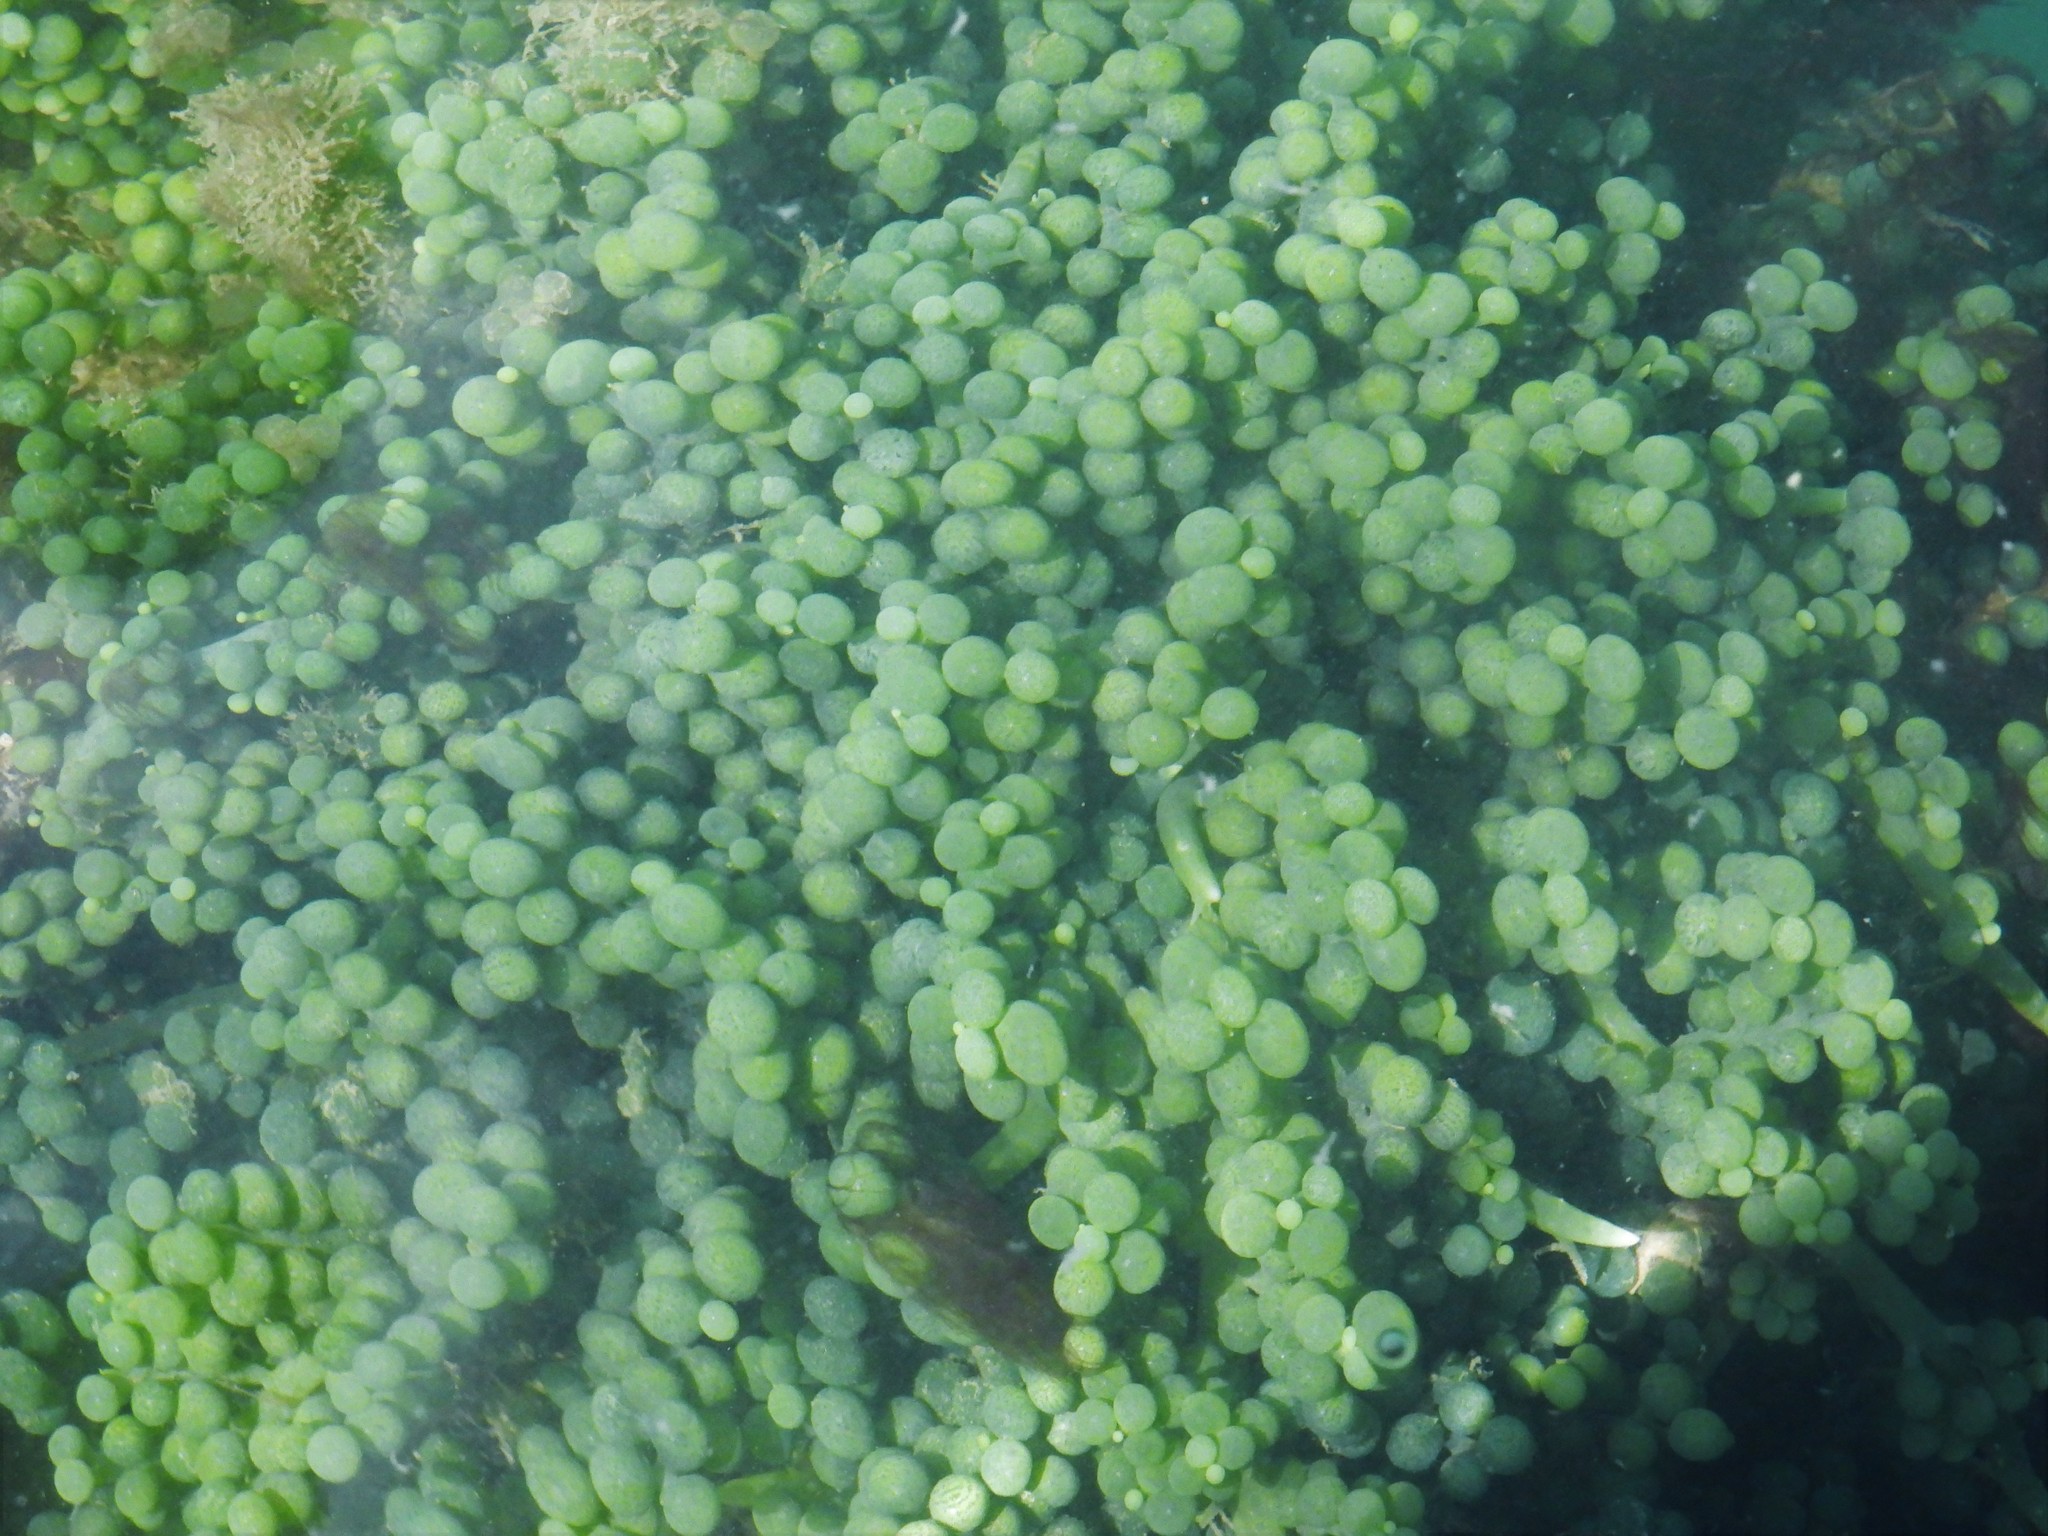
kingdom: Plantae
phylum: Chlorophyta
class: Ulvophyceae
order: Bryopsidales
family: Caulerpaceae
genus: Caulerpa
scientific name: Caulerpa racemosa
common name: Green grape algae
